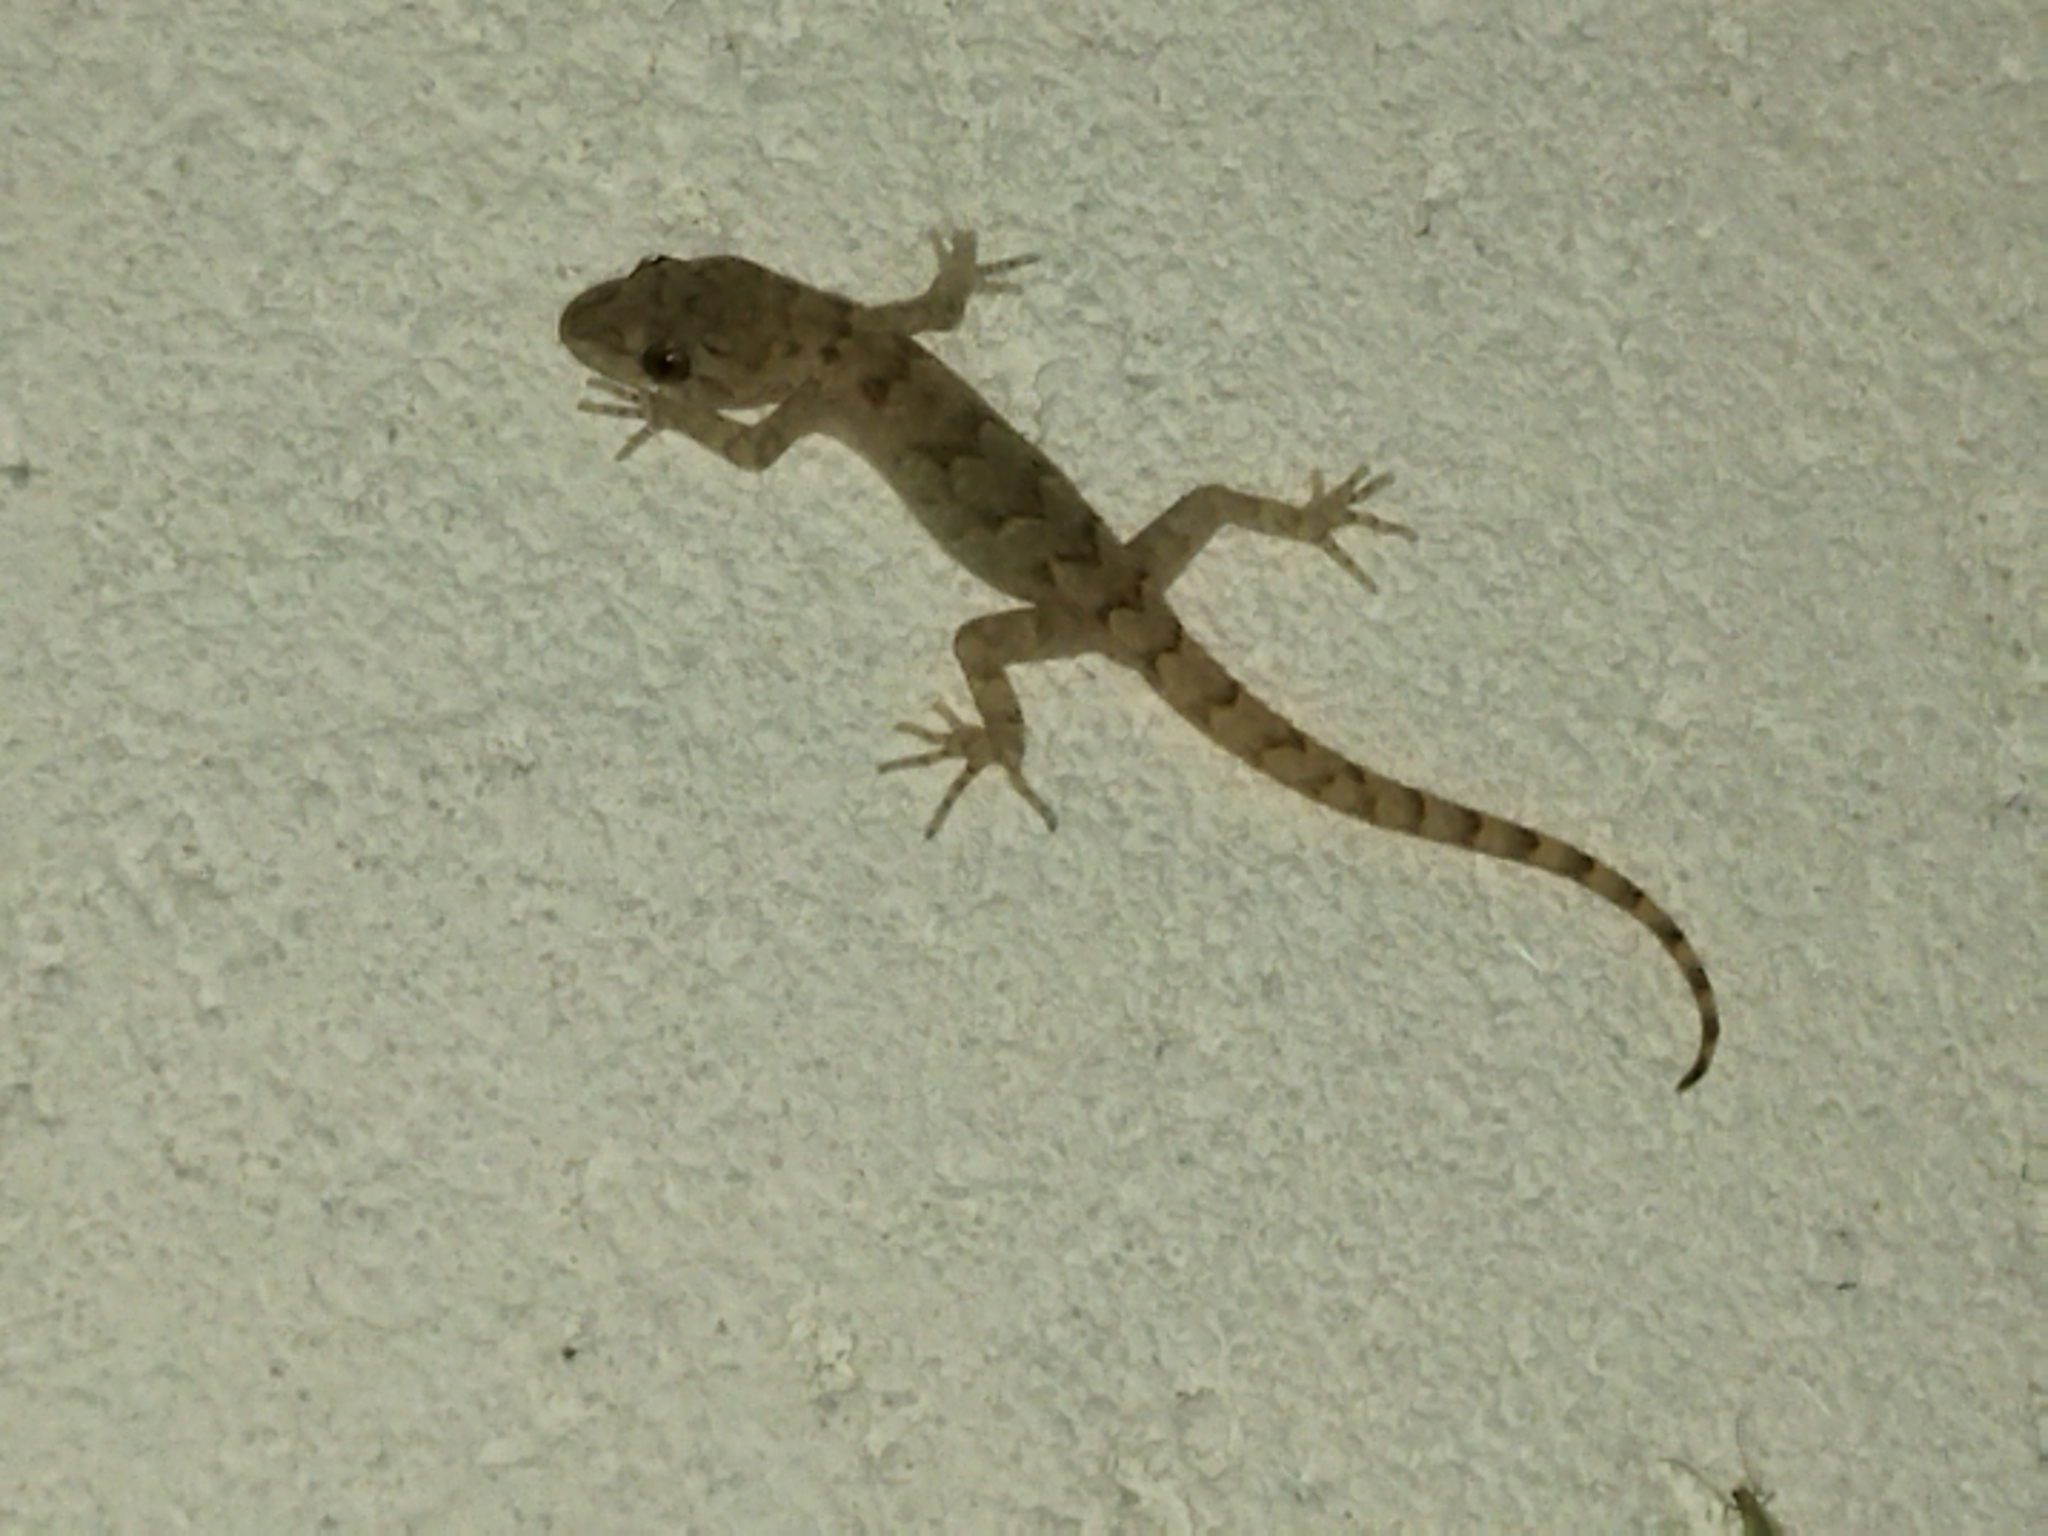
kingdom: Animalia
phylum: Chordata
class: Squamata
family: Gekkonidae
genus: Mediodactylus
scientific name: Mediodactylus kotschyi
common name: Kotschy's gecko
